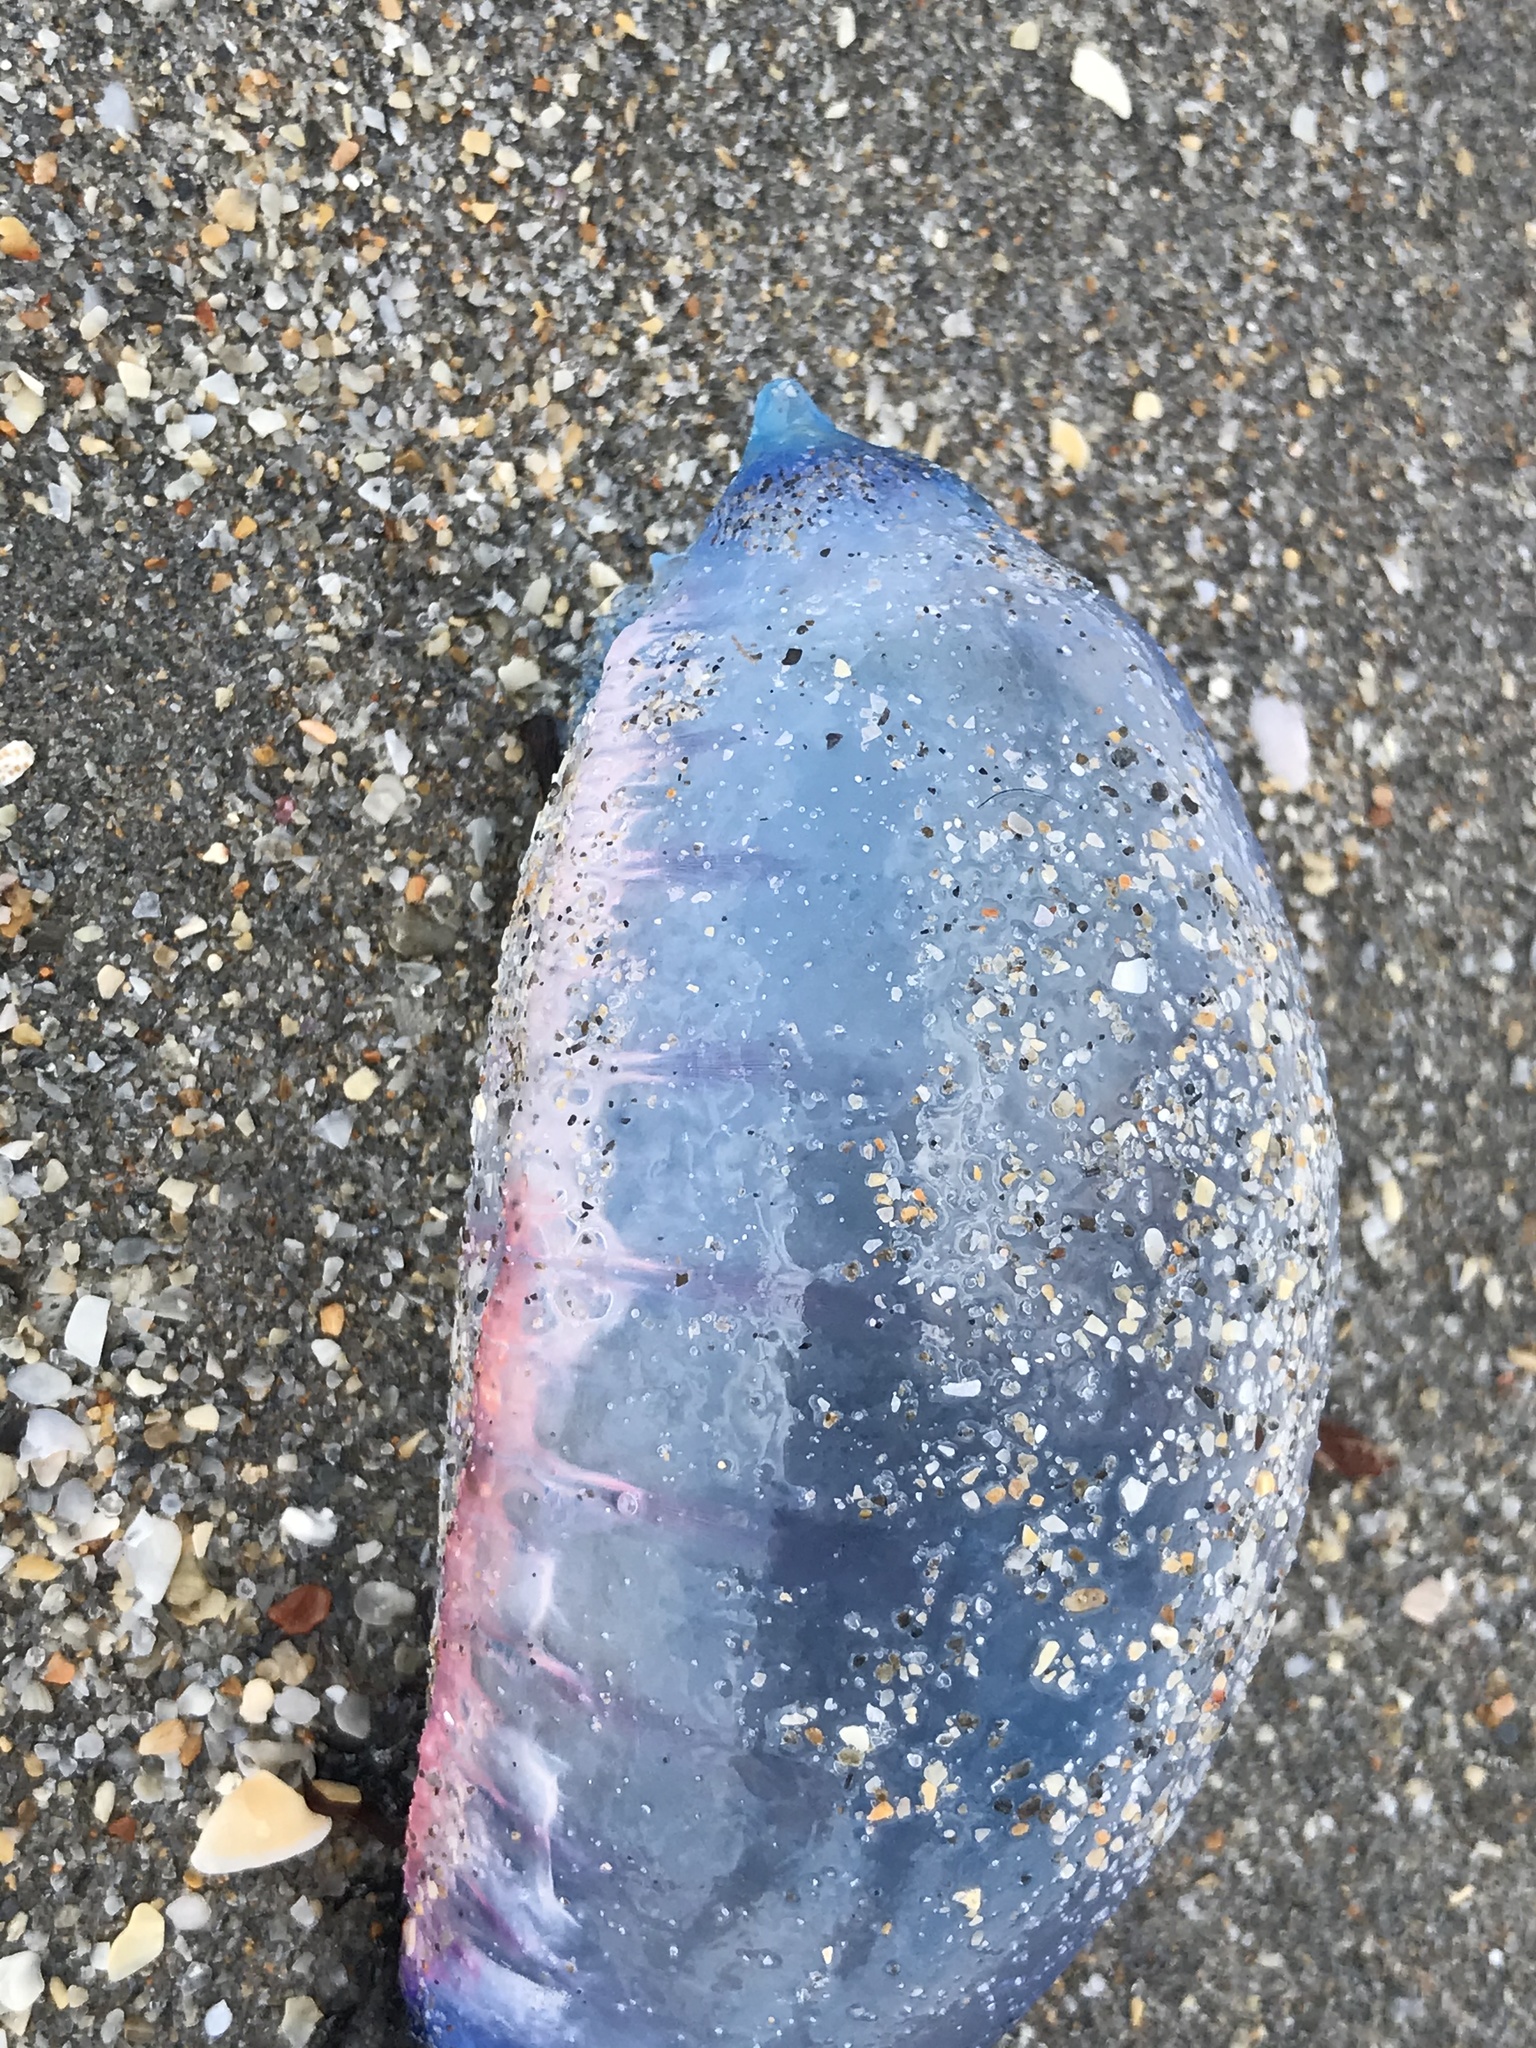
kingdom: Animalia
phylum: Cnidaria
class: Hydrozoa
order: Siphonophorae
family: Physaliidae
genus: Physalia
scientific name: Physalia physalis
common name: Portuguese man-of-war
